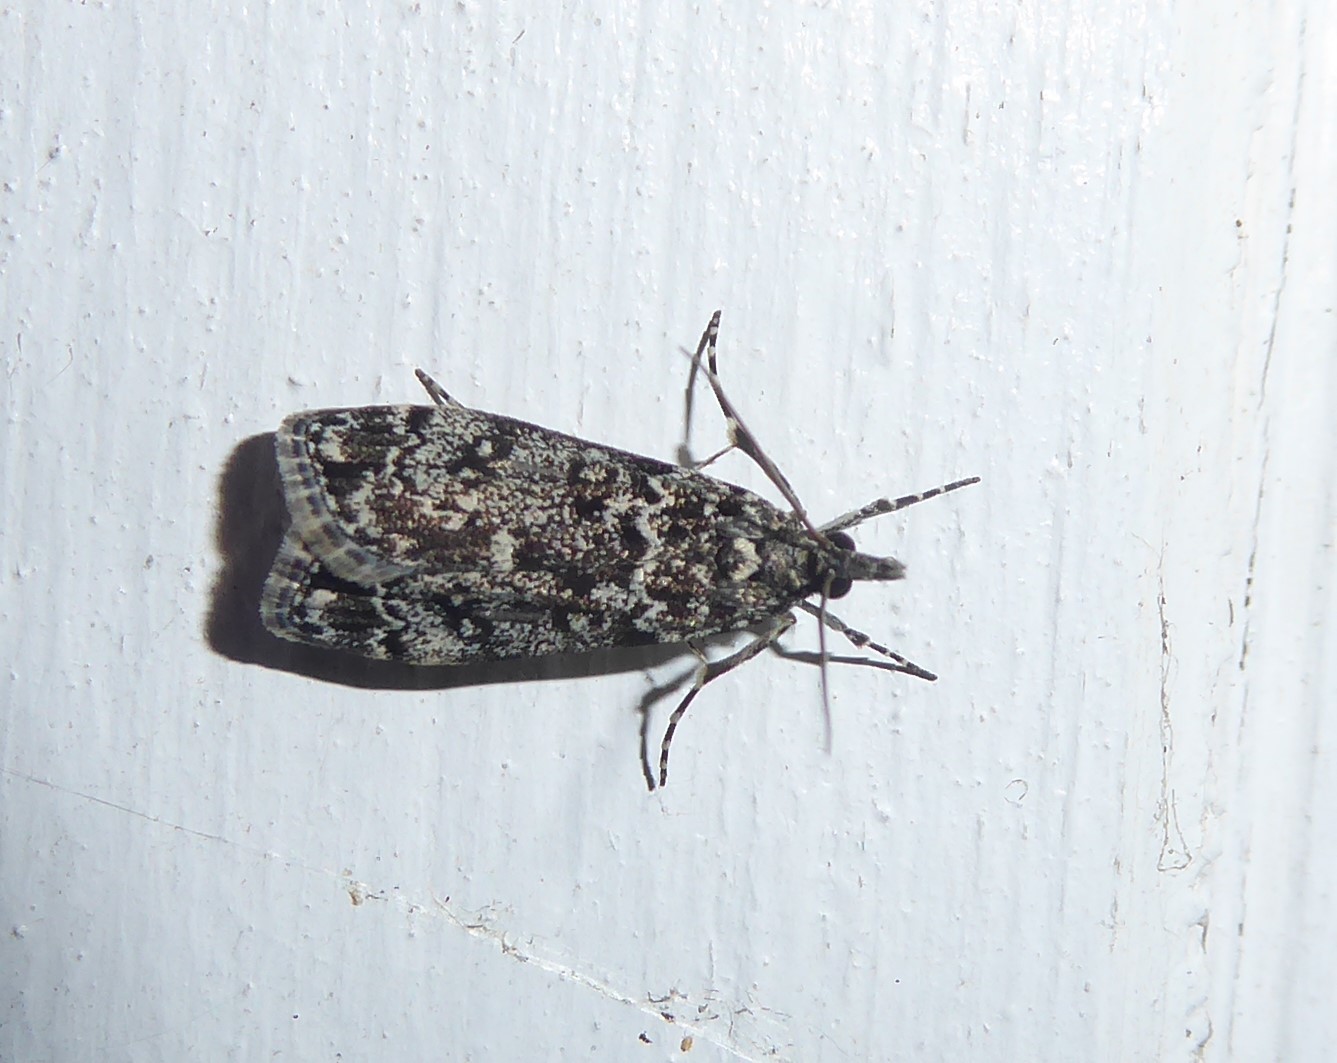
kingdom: Animalia
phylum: Arthropoda
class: Insecta
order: Lepidoptera
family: Crambidae
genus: Eudonia
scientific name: Eudonia philerga
